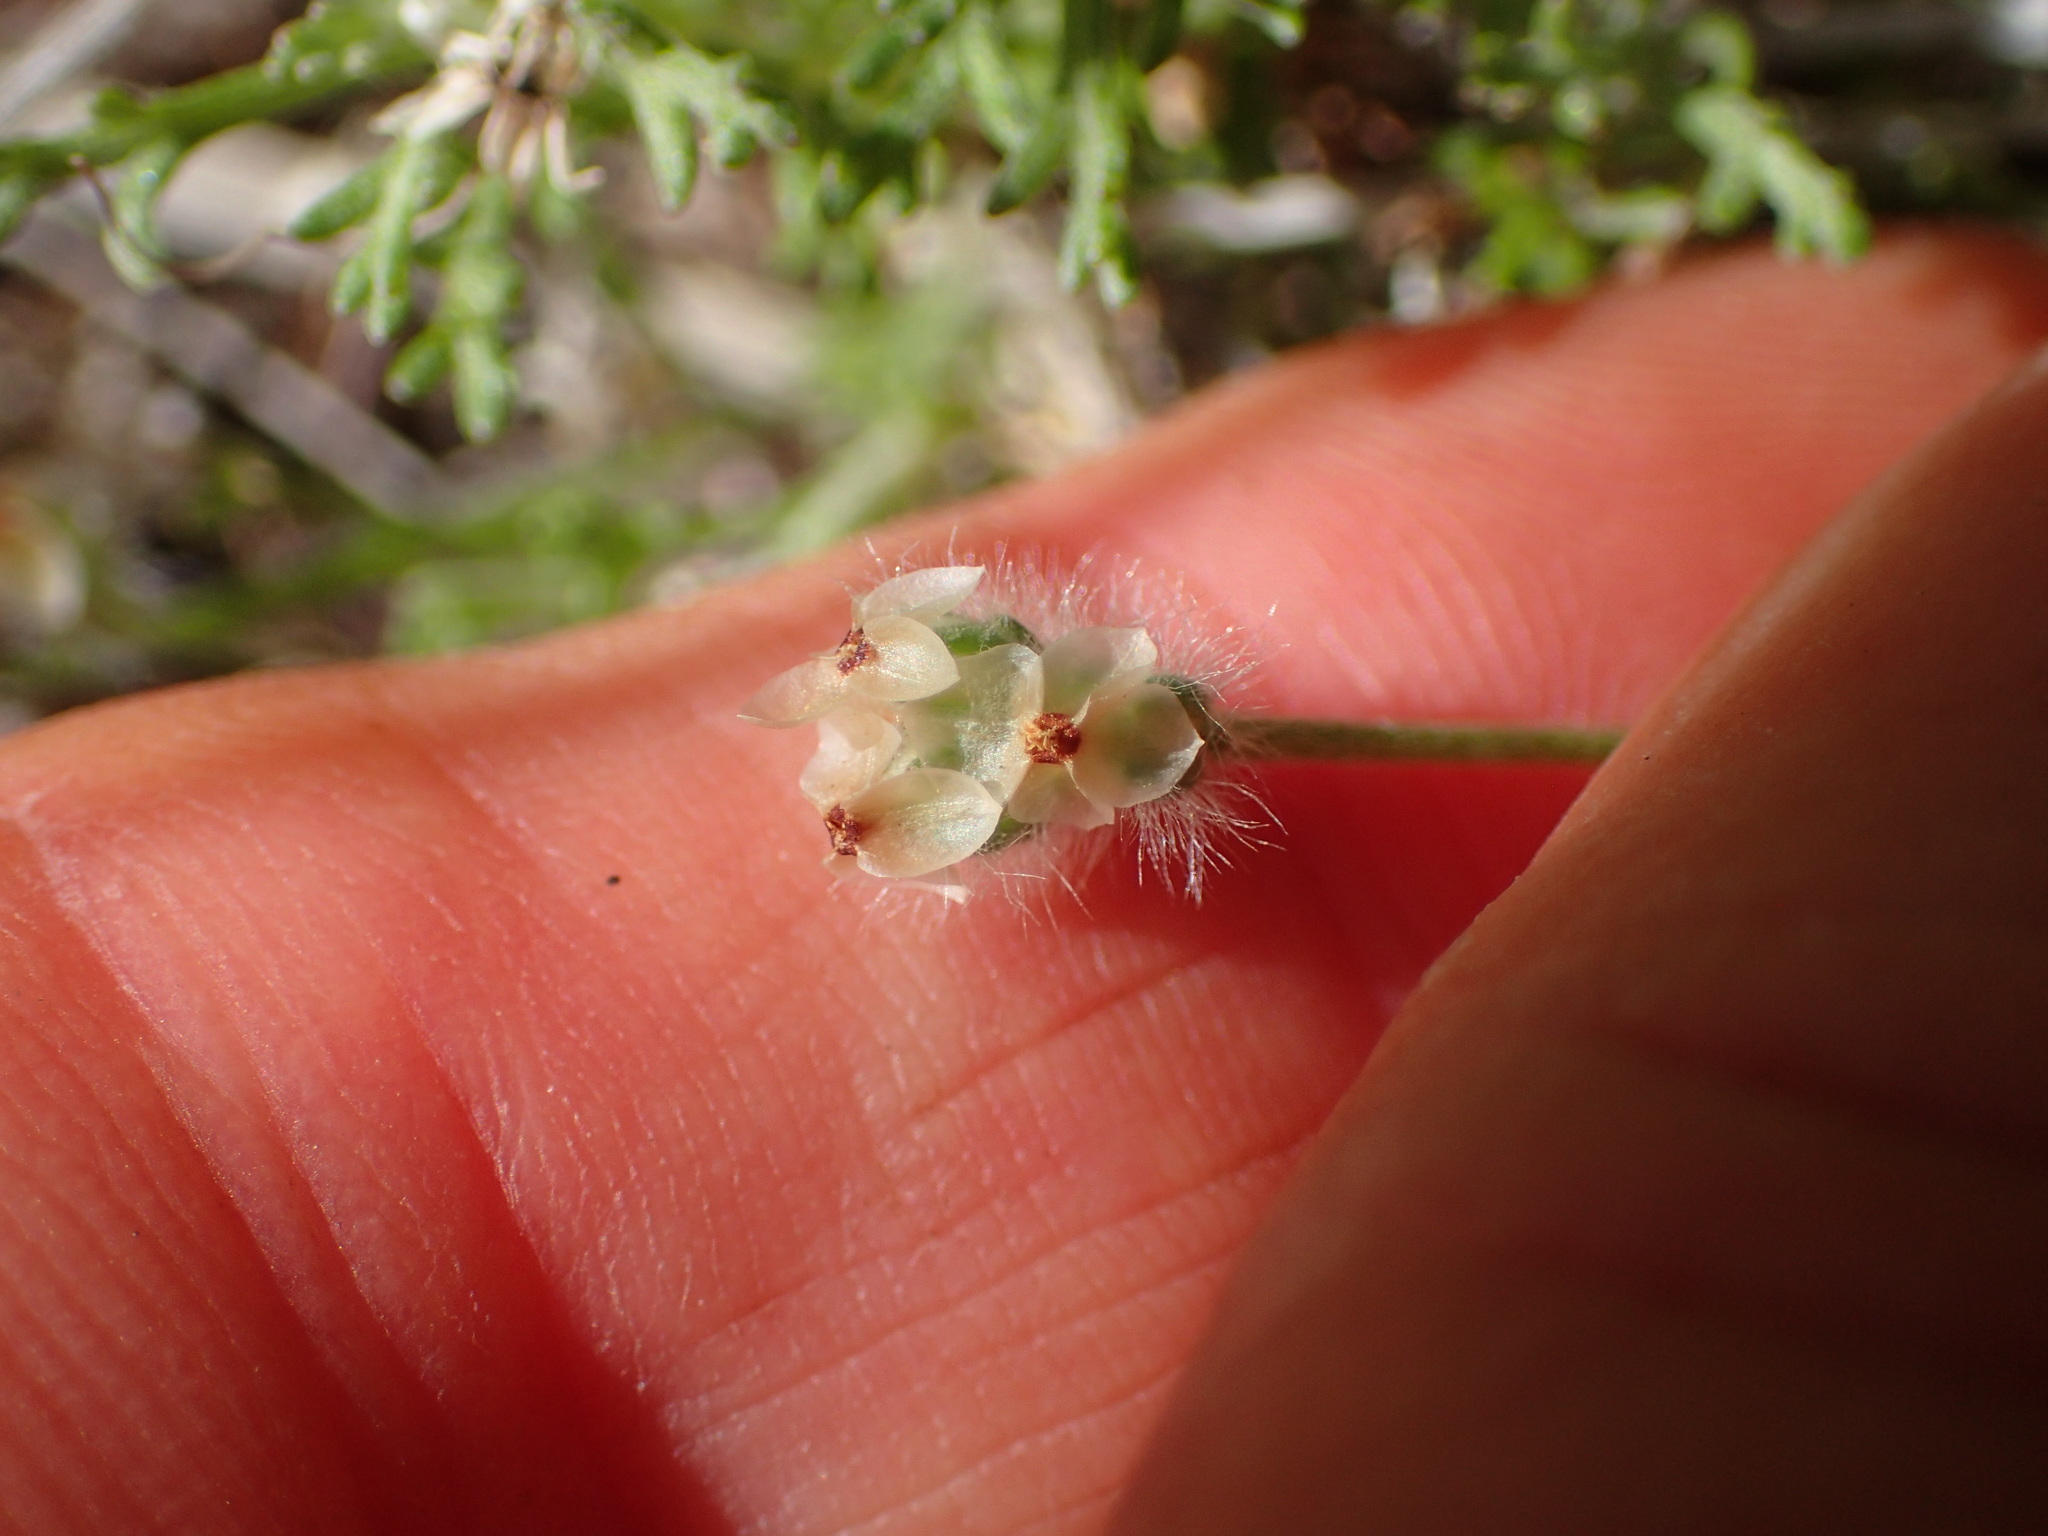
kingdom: Plantae
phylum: Tracheophyta
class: Magnoliopsida
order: Lamiales
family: Plantaginaceae
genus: Plantago
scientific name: Plantago erecta
